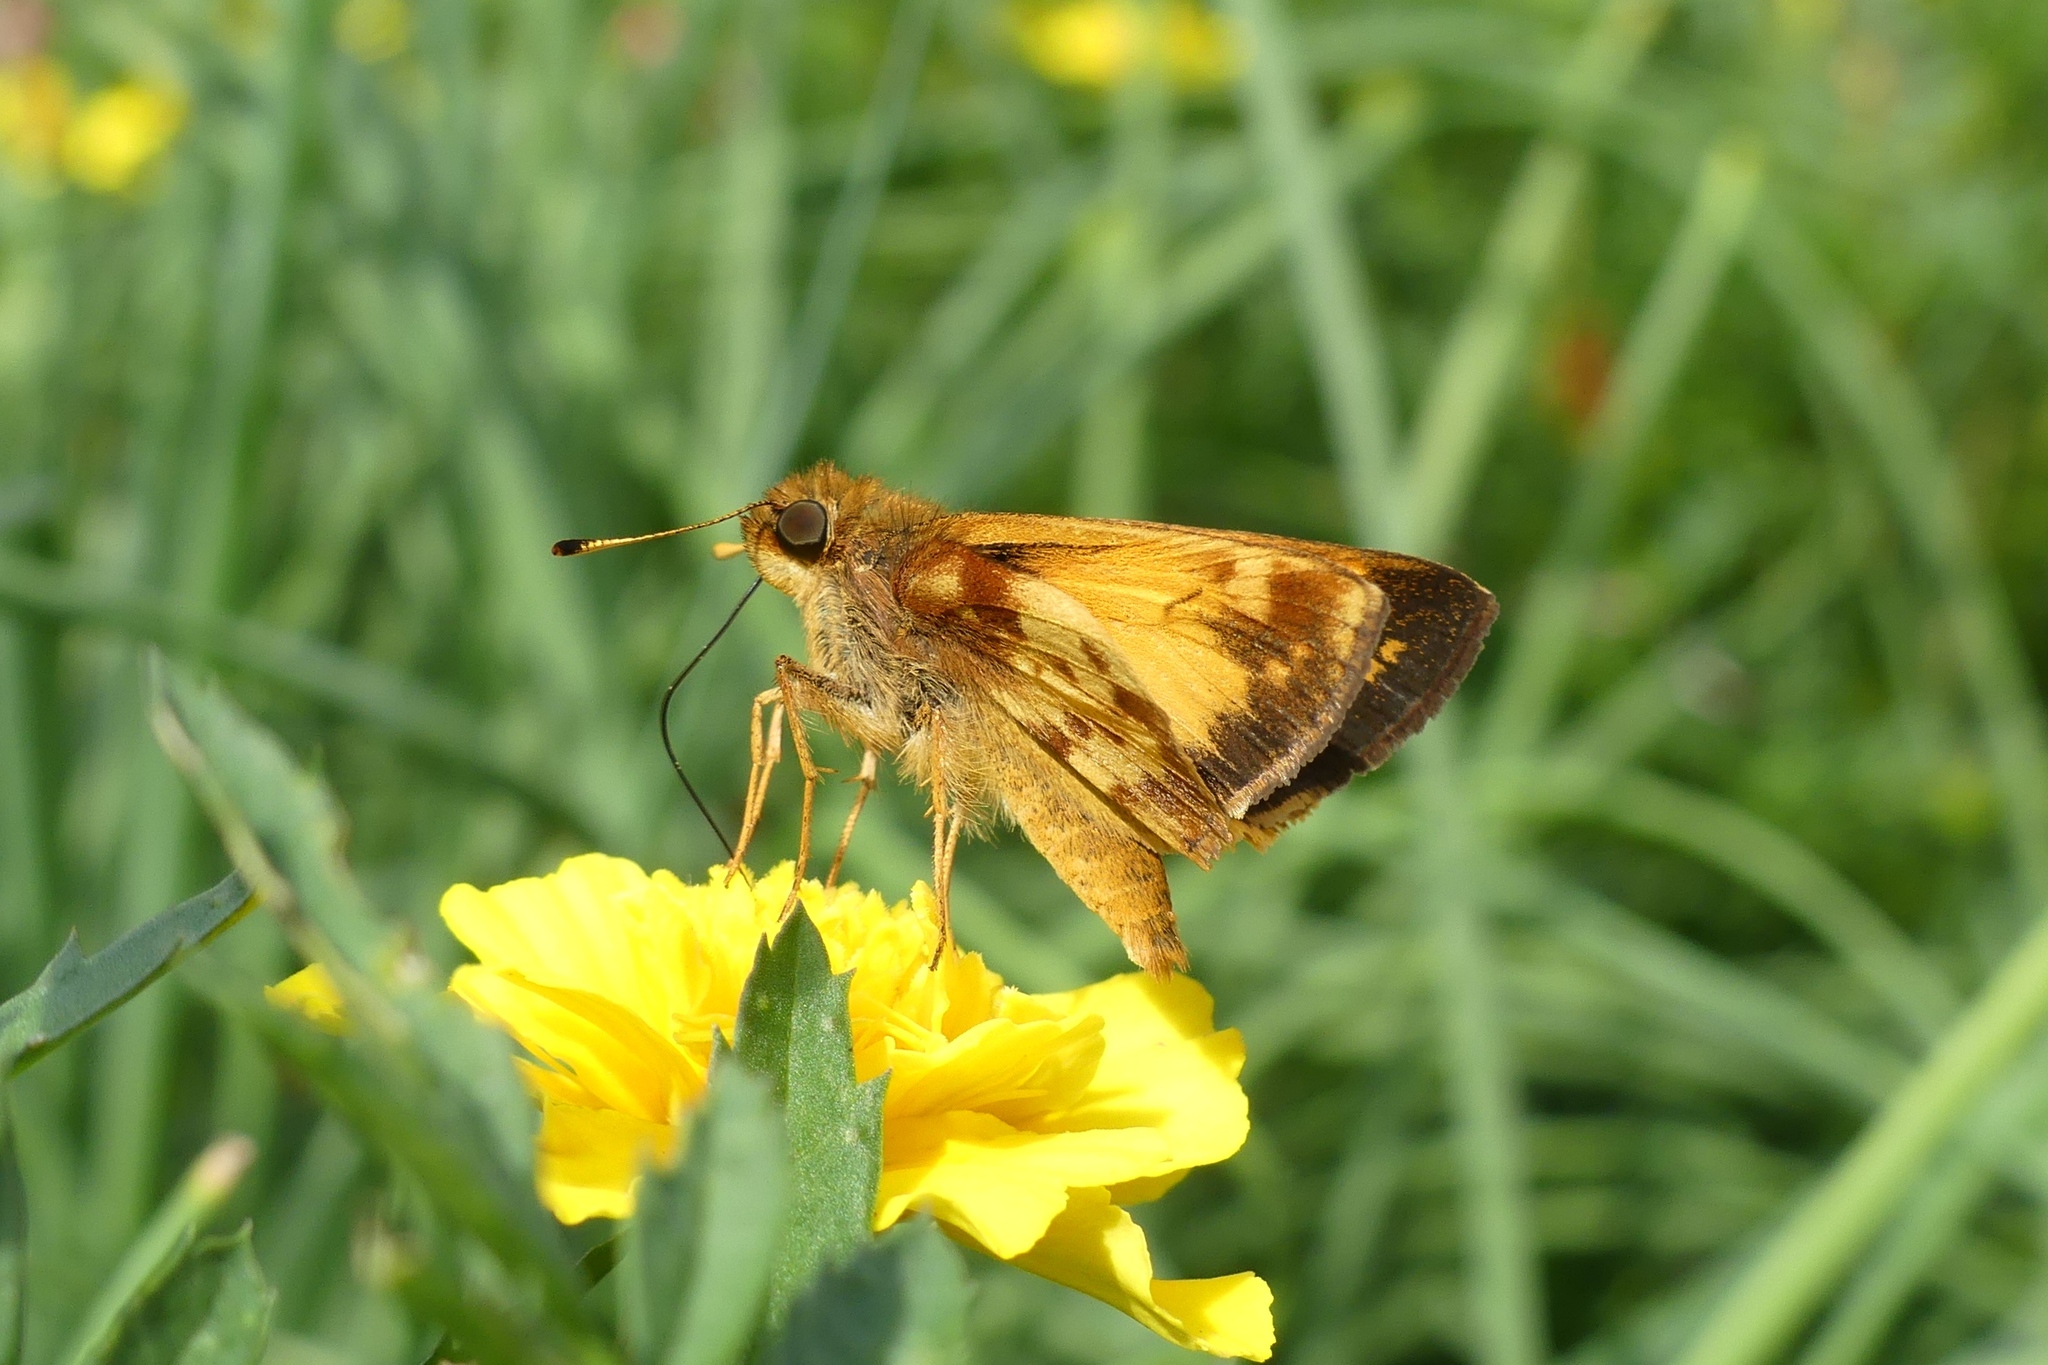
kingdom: Animalia
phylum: Arthropoda
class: Insecta
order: Lepidoptera
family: Hesperiidae
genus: Lon
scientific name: Lon zabulon
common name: Zabulon skipper
